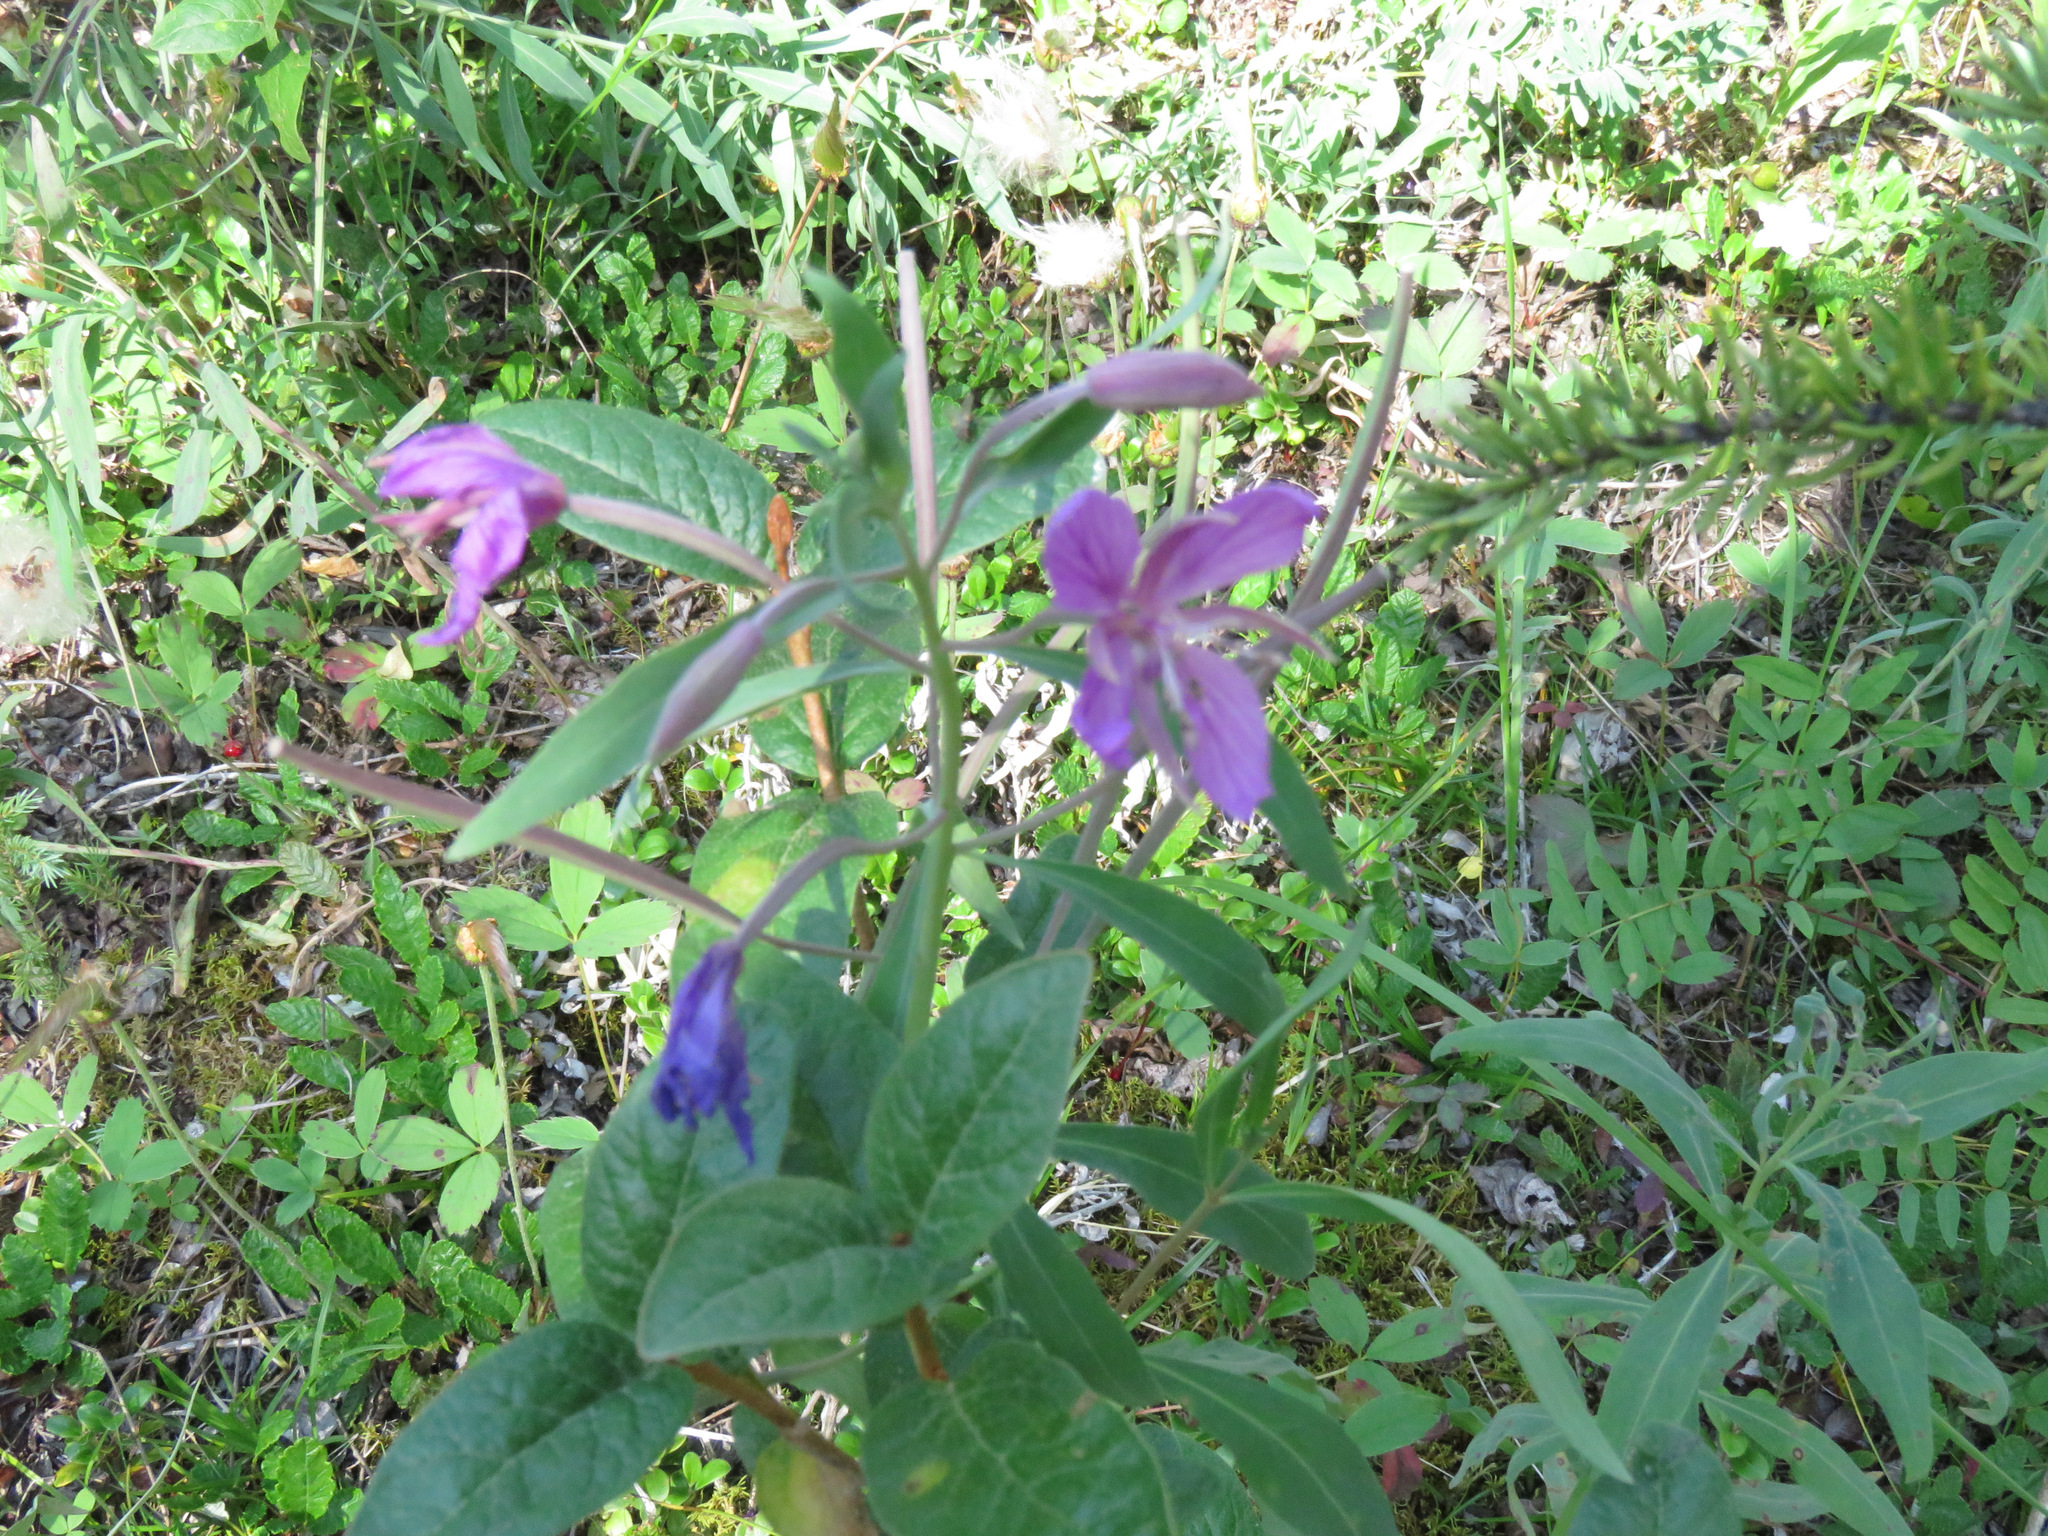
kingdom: Plantae
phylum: Tracheophyta
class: Magnoliopsida
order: Myrtales
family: Onagraceae
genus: Chamaenerion
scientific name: Chamaenerion latifolium
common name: Dwarf fireweed
